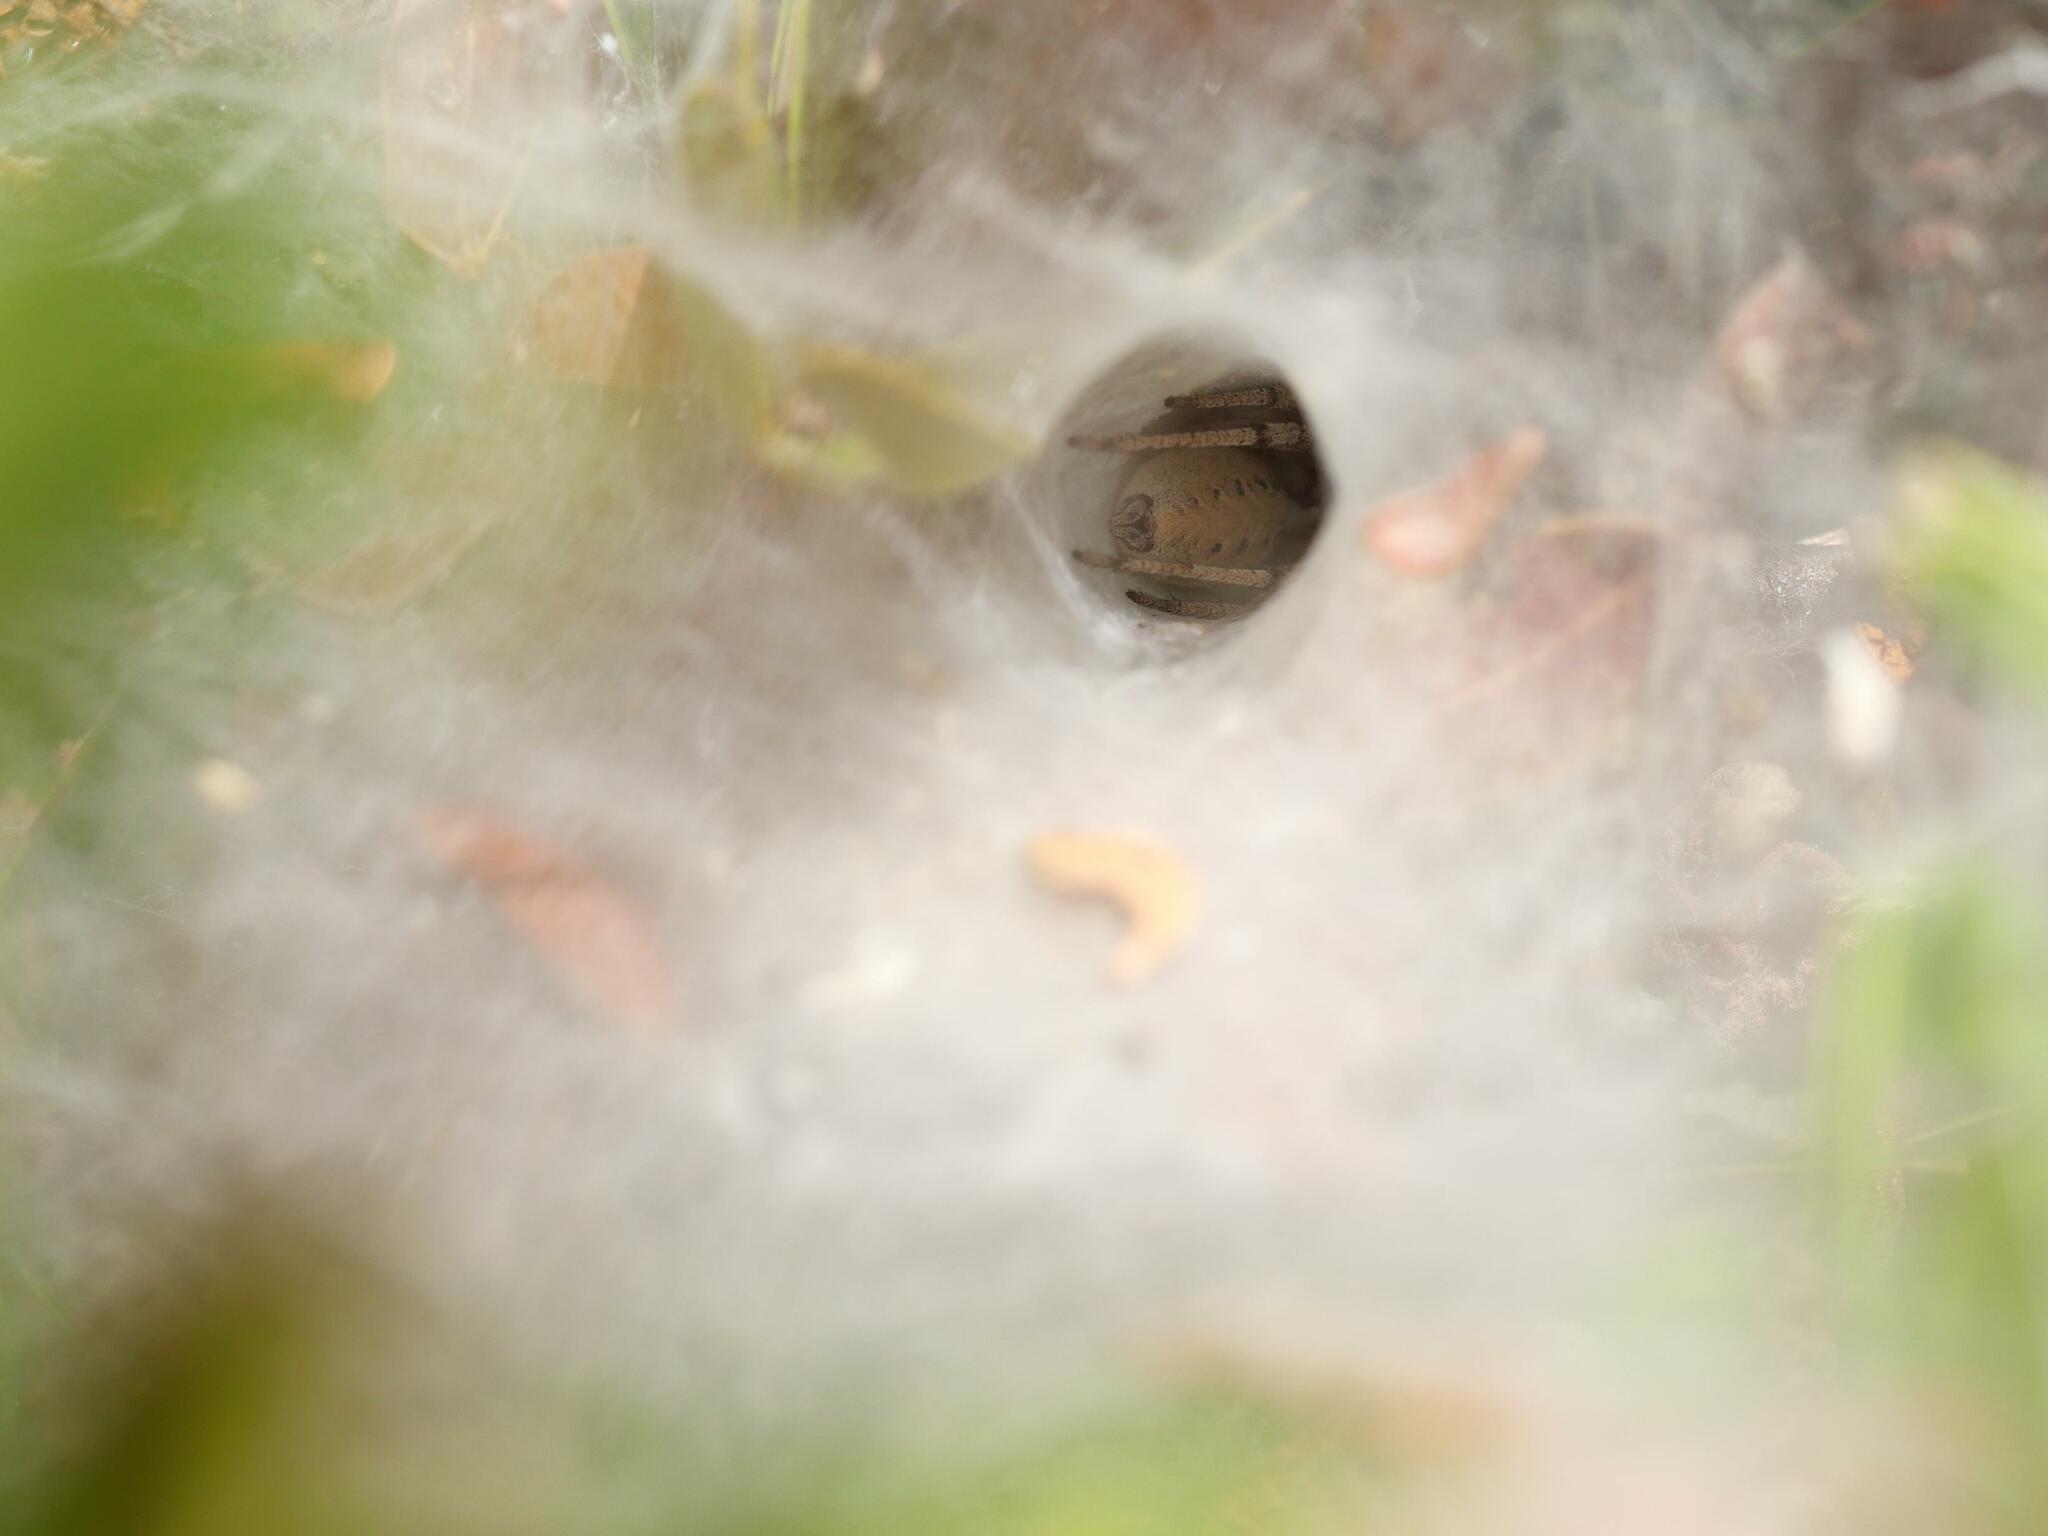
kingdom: Animalia
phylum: Arthropoda
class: Arachnida
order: Araneae
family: Agelenidae
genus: Agelena
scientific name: Agelena orientalis
